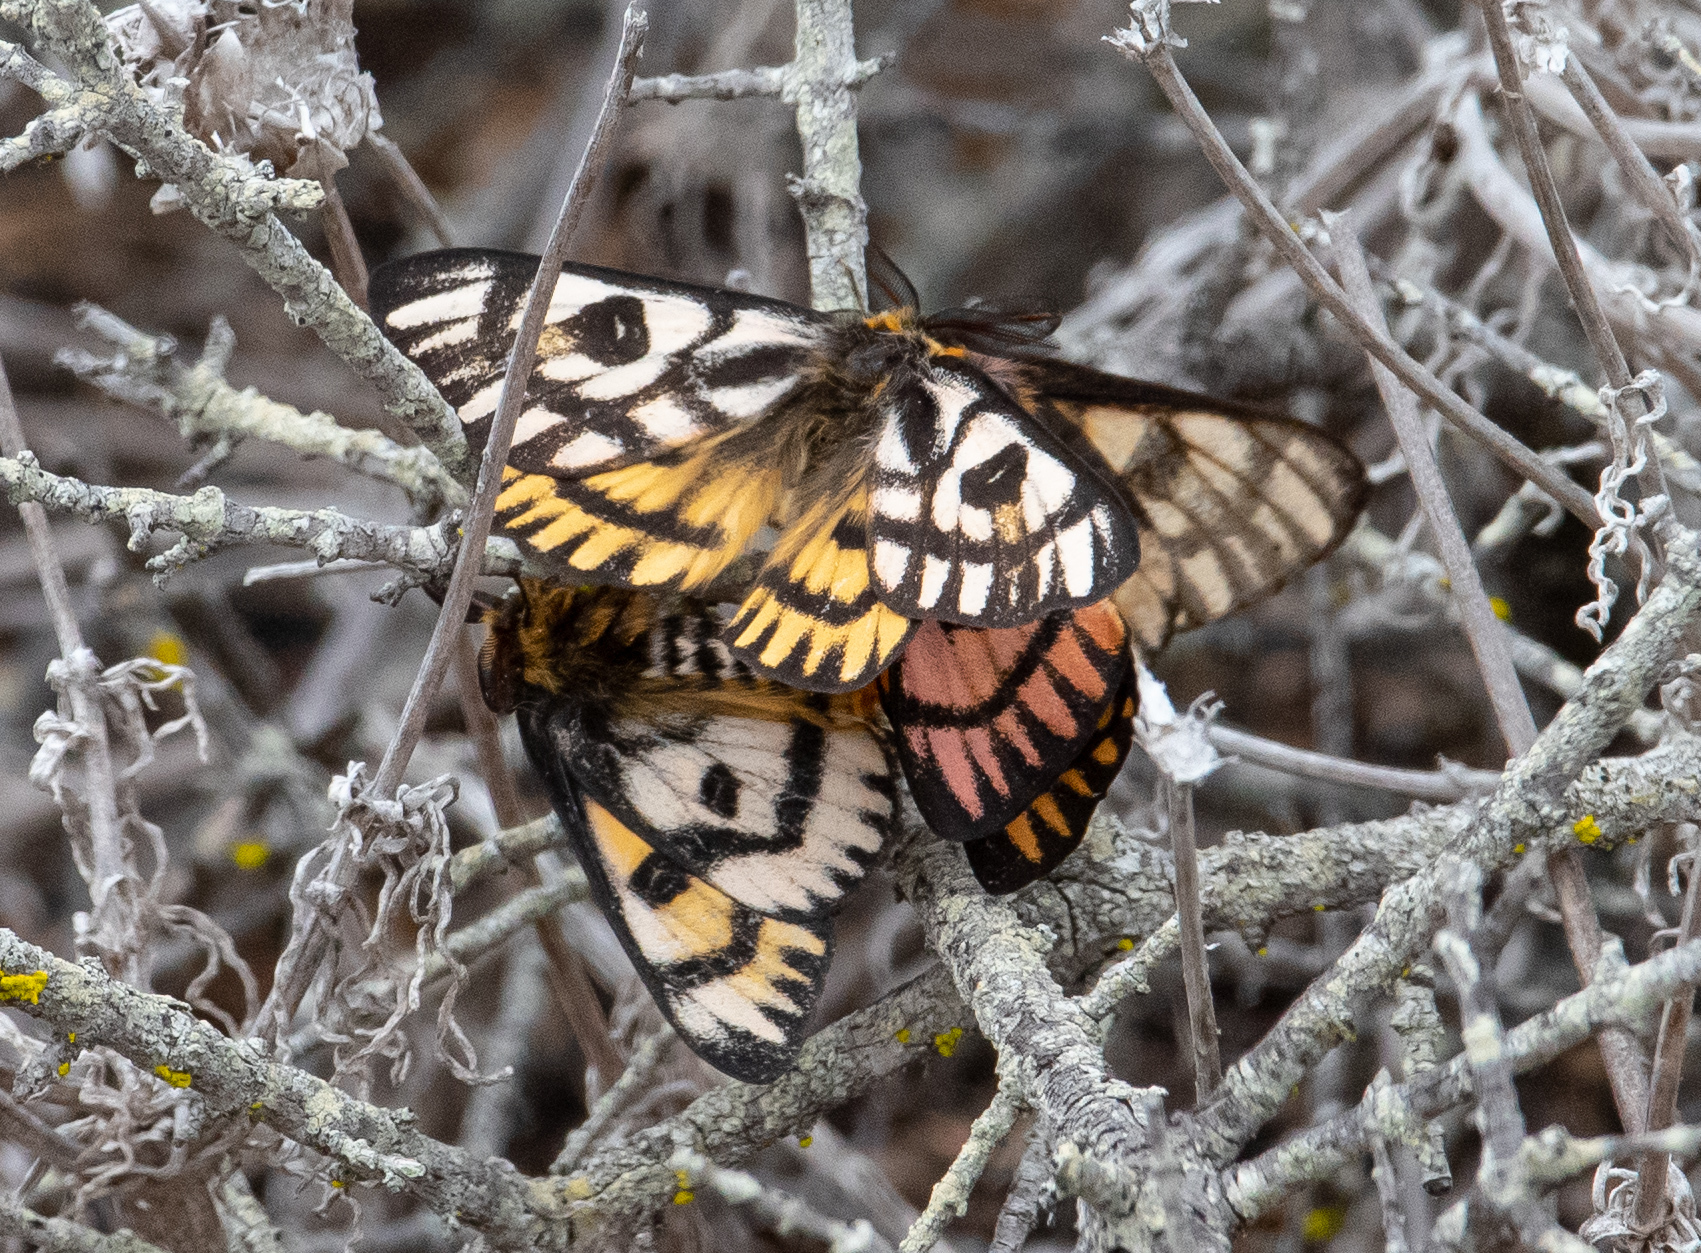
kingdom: Animalia
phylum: Arthropoda
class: Insecta
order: Lepidoptera
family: Saturniidae
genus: Hemileuca
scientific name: Hemileuca eglanterina
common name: Western sheepmoth
